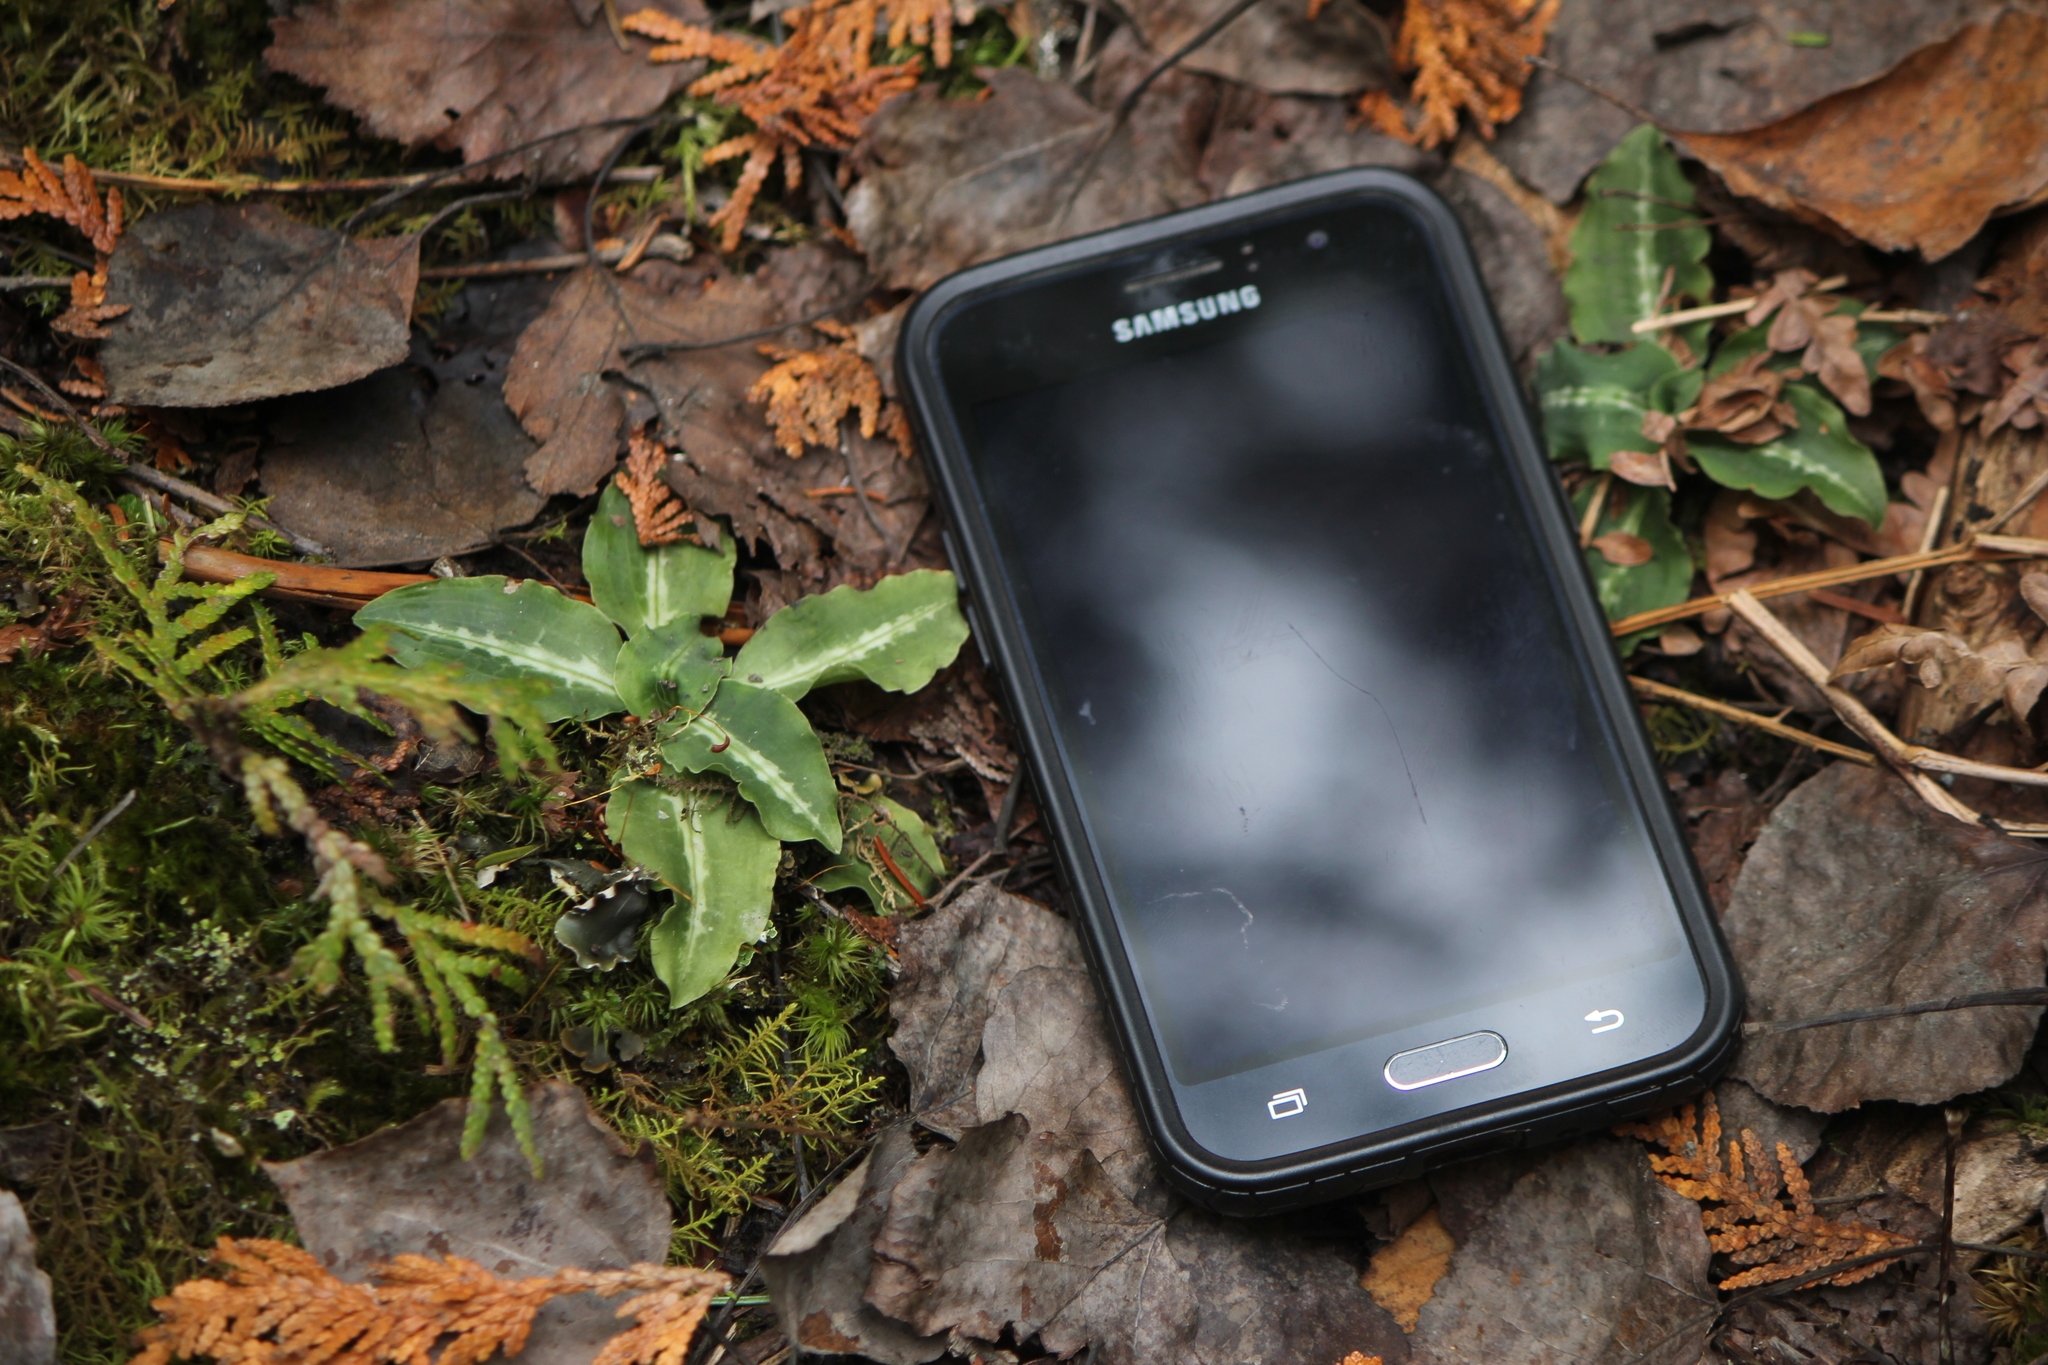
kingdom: Plantae
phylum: Tracheophyta
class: Liliopsida
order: Asparagales
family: Orchidaceae
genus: Goodyera
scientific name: Goodyera oblongifolia
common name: Giant rattlesnake-plantain
